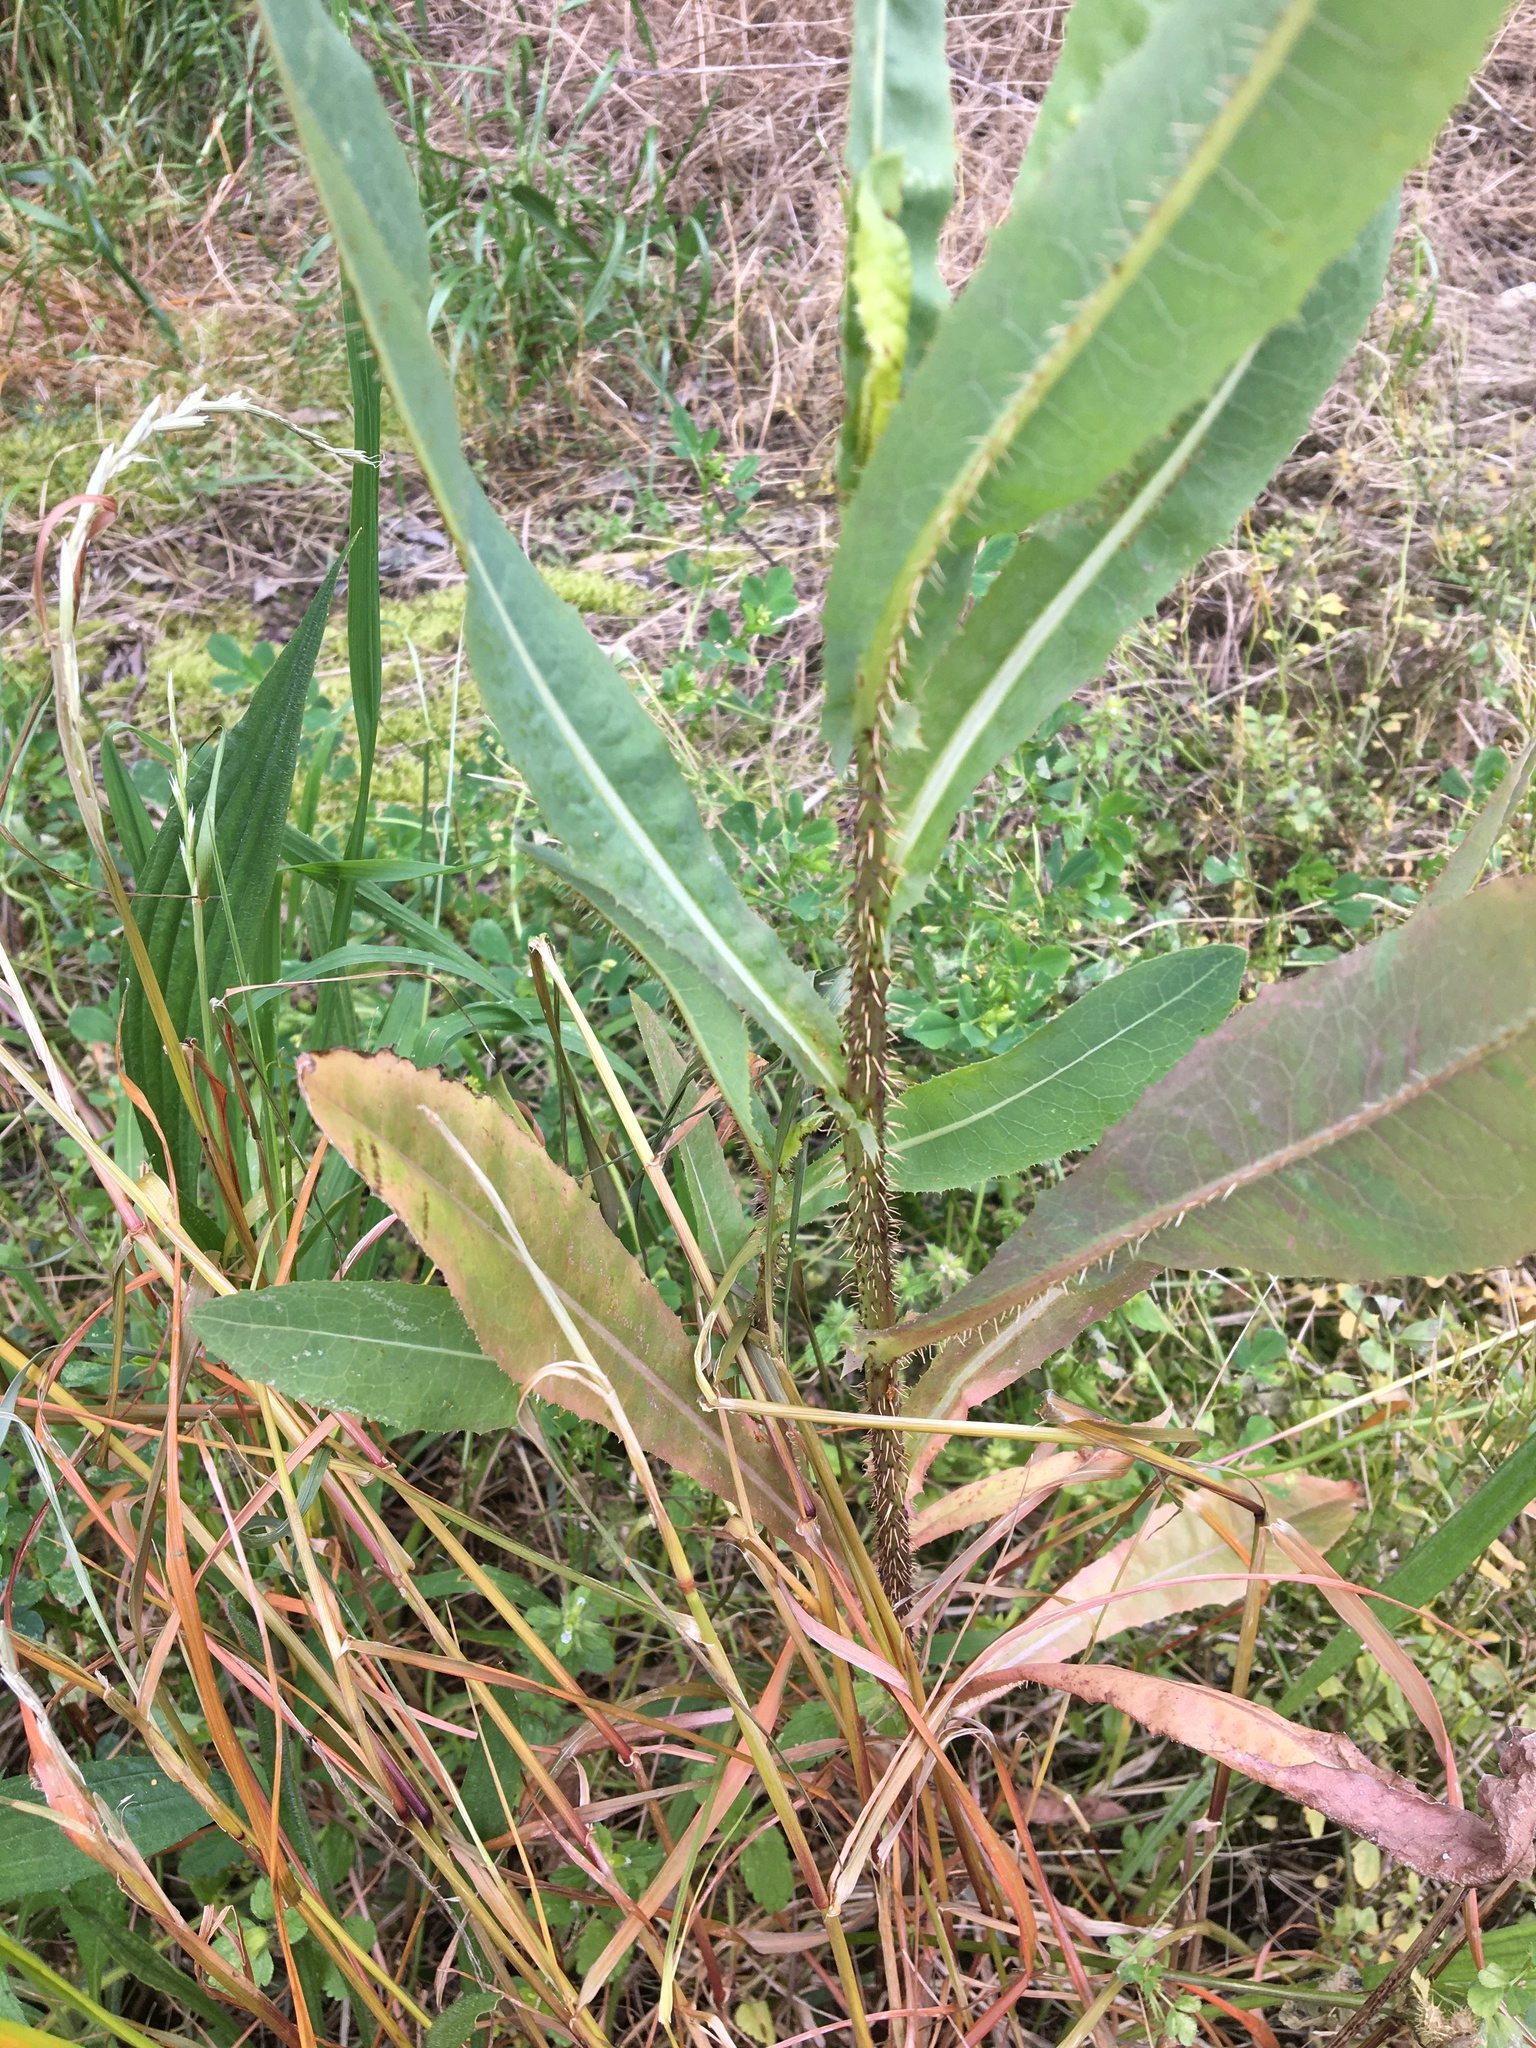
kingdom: Plantae
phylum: Tracheophyta
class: Magnoliopsida
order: Asterales
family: Asteraceae
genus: Lactuca
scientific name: Lactuca serriola
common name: Prickly lettuce
